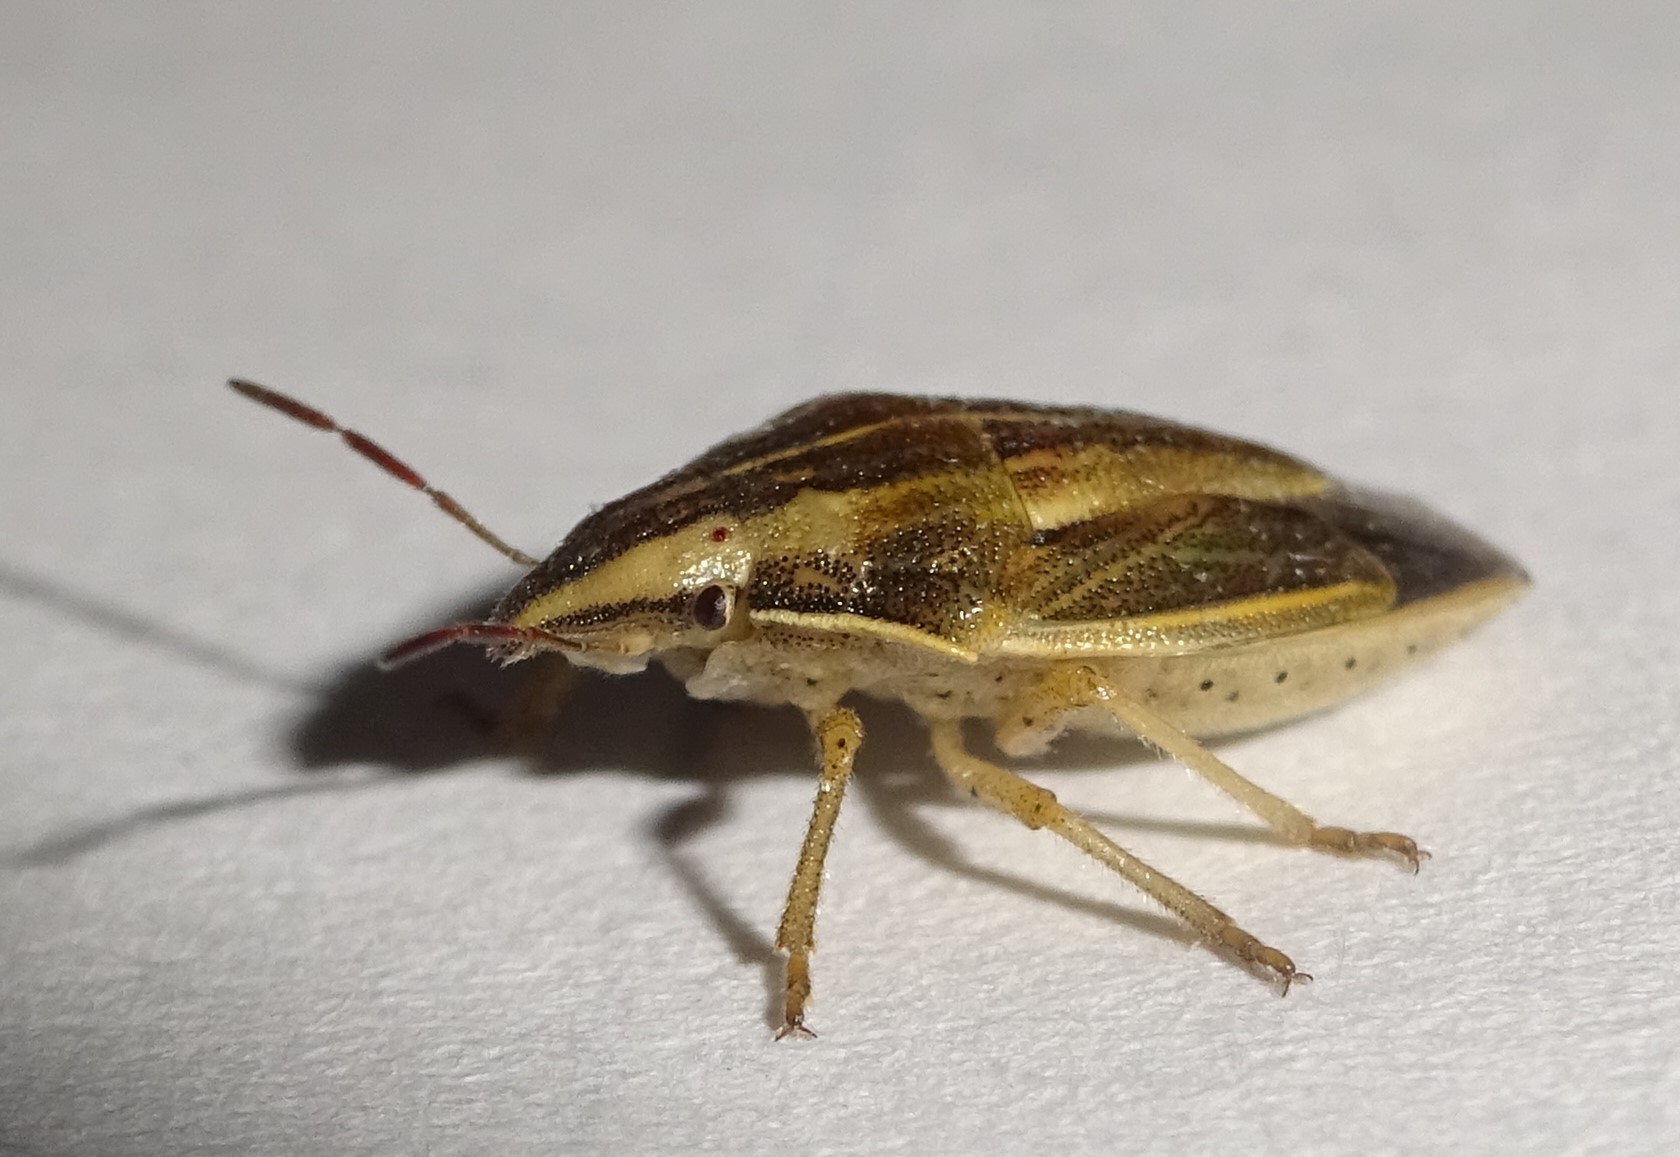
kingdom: Animalia
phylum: Arthropoda
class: Insecta
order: Hemiptera
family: Pentatomidae
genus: Aelia
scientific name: Aelia acuminata
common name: Bishop's mitre
